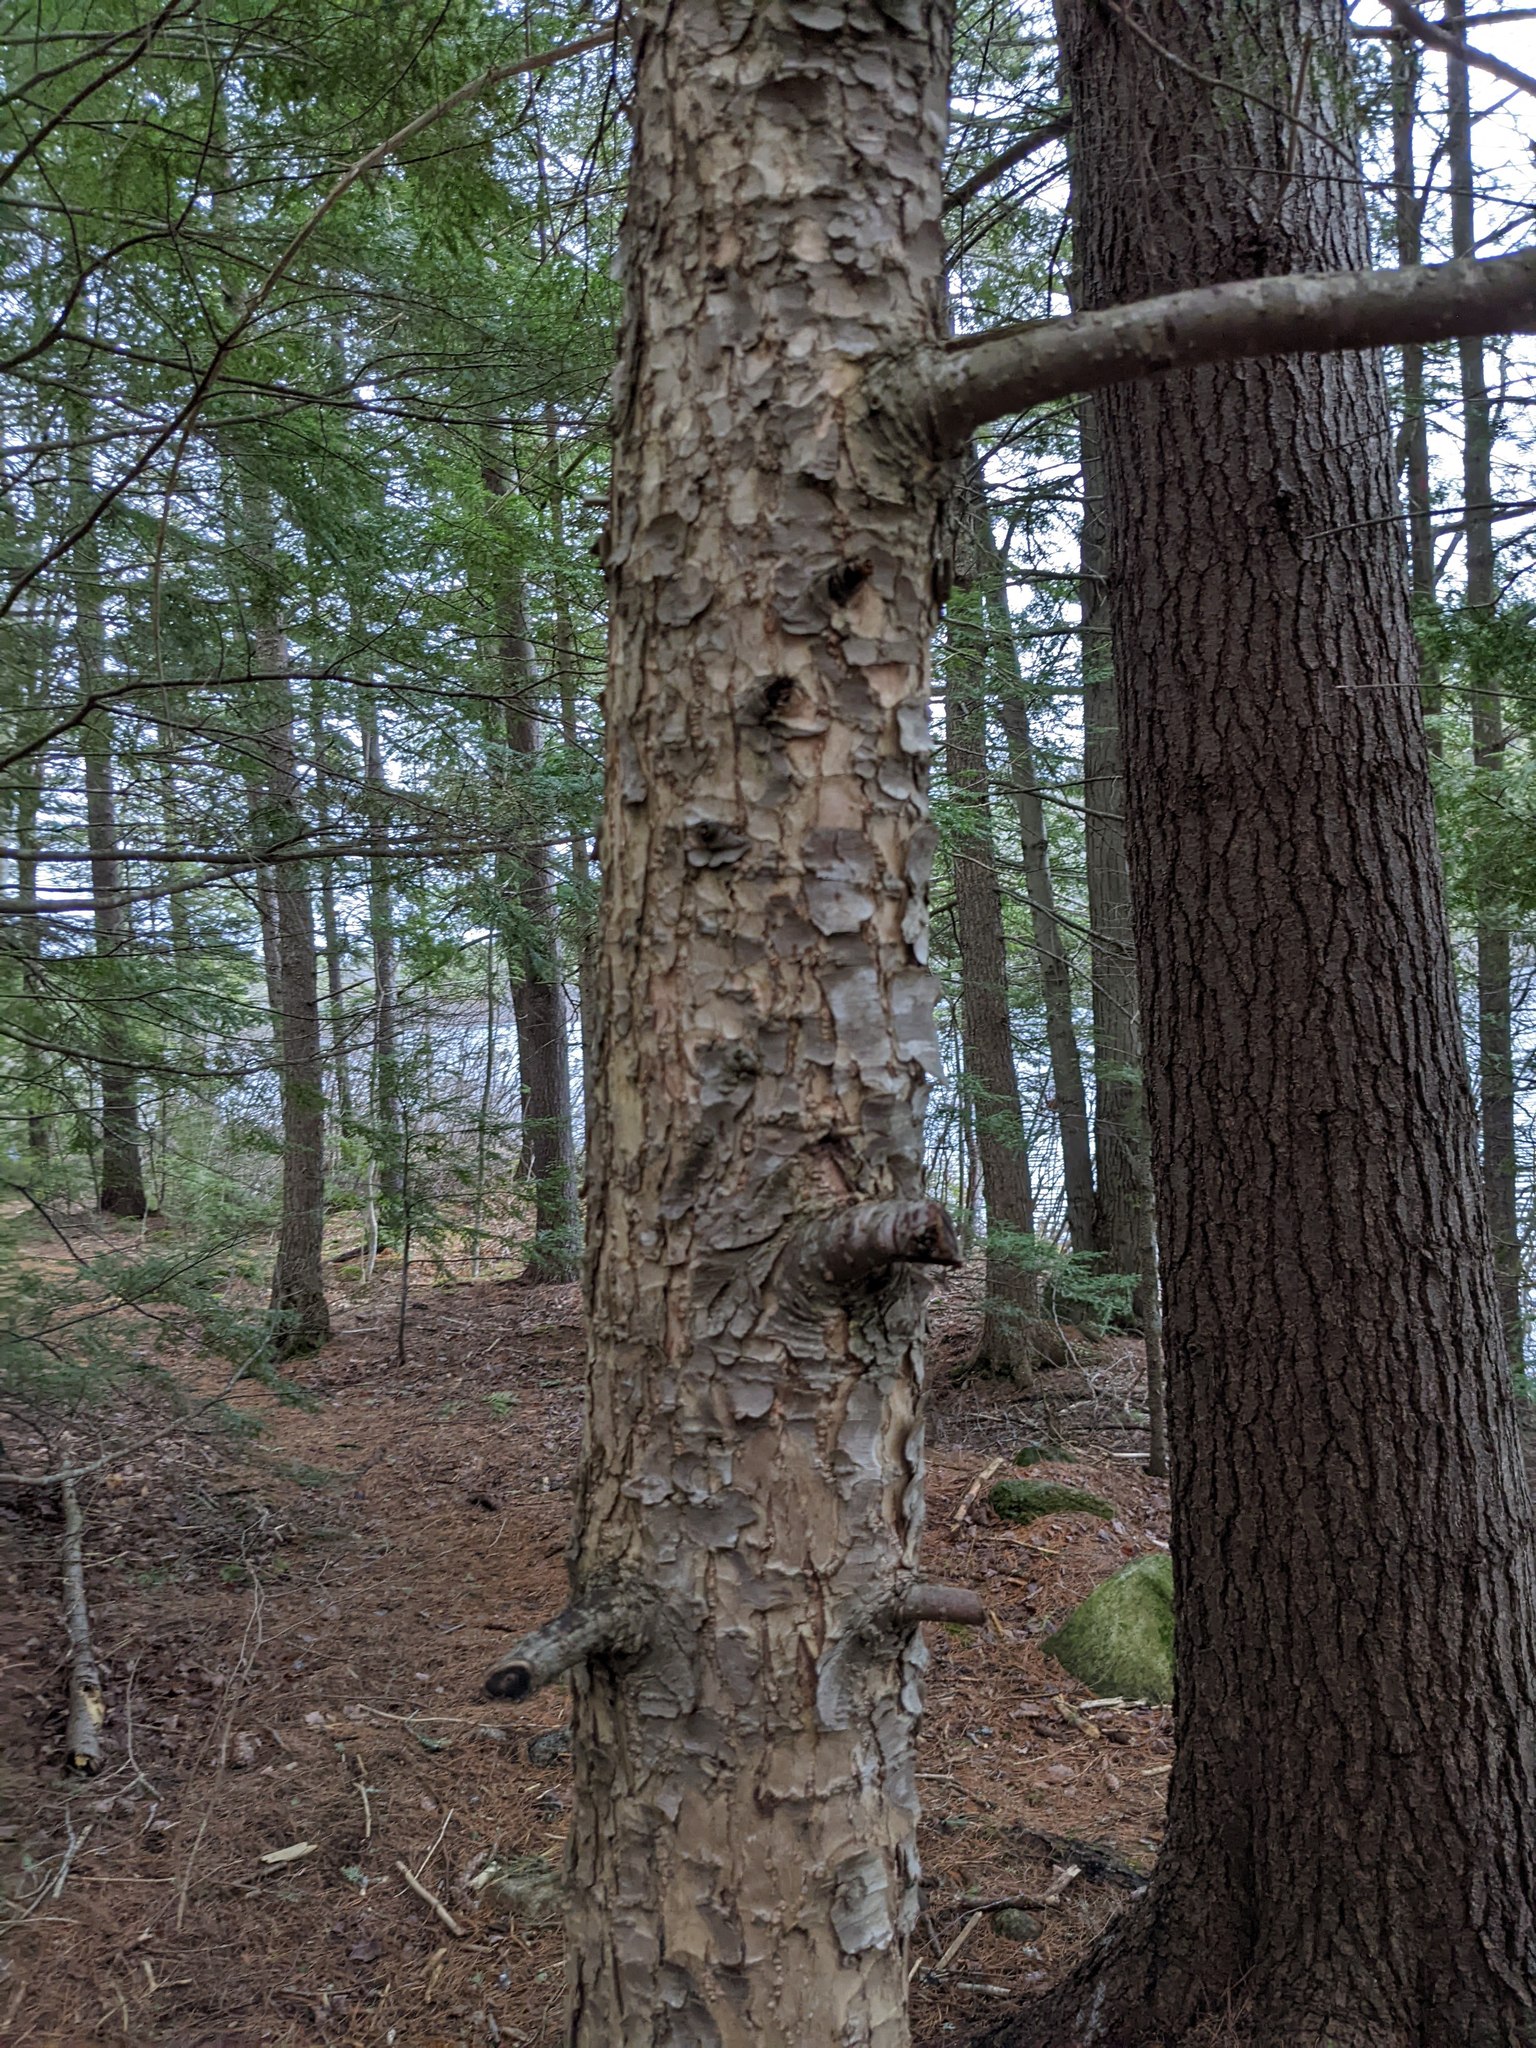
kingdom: Plantae
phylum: Tracheophyta
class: Pinopsida
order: Pinales
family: Pinaceae
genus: Tsuga
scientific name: Tsuga canadensis
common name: Eastern hemlock
